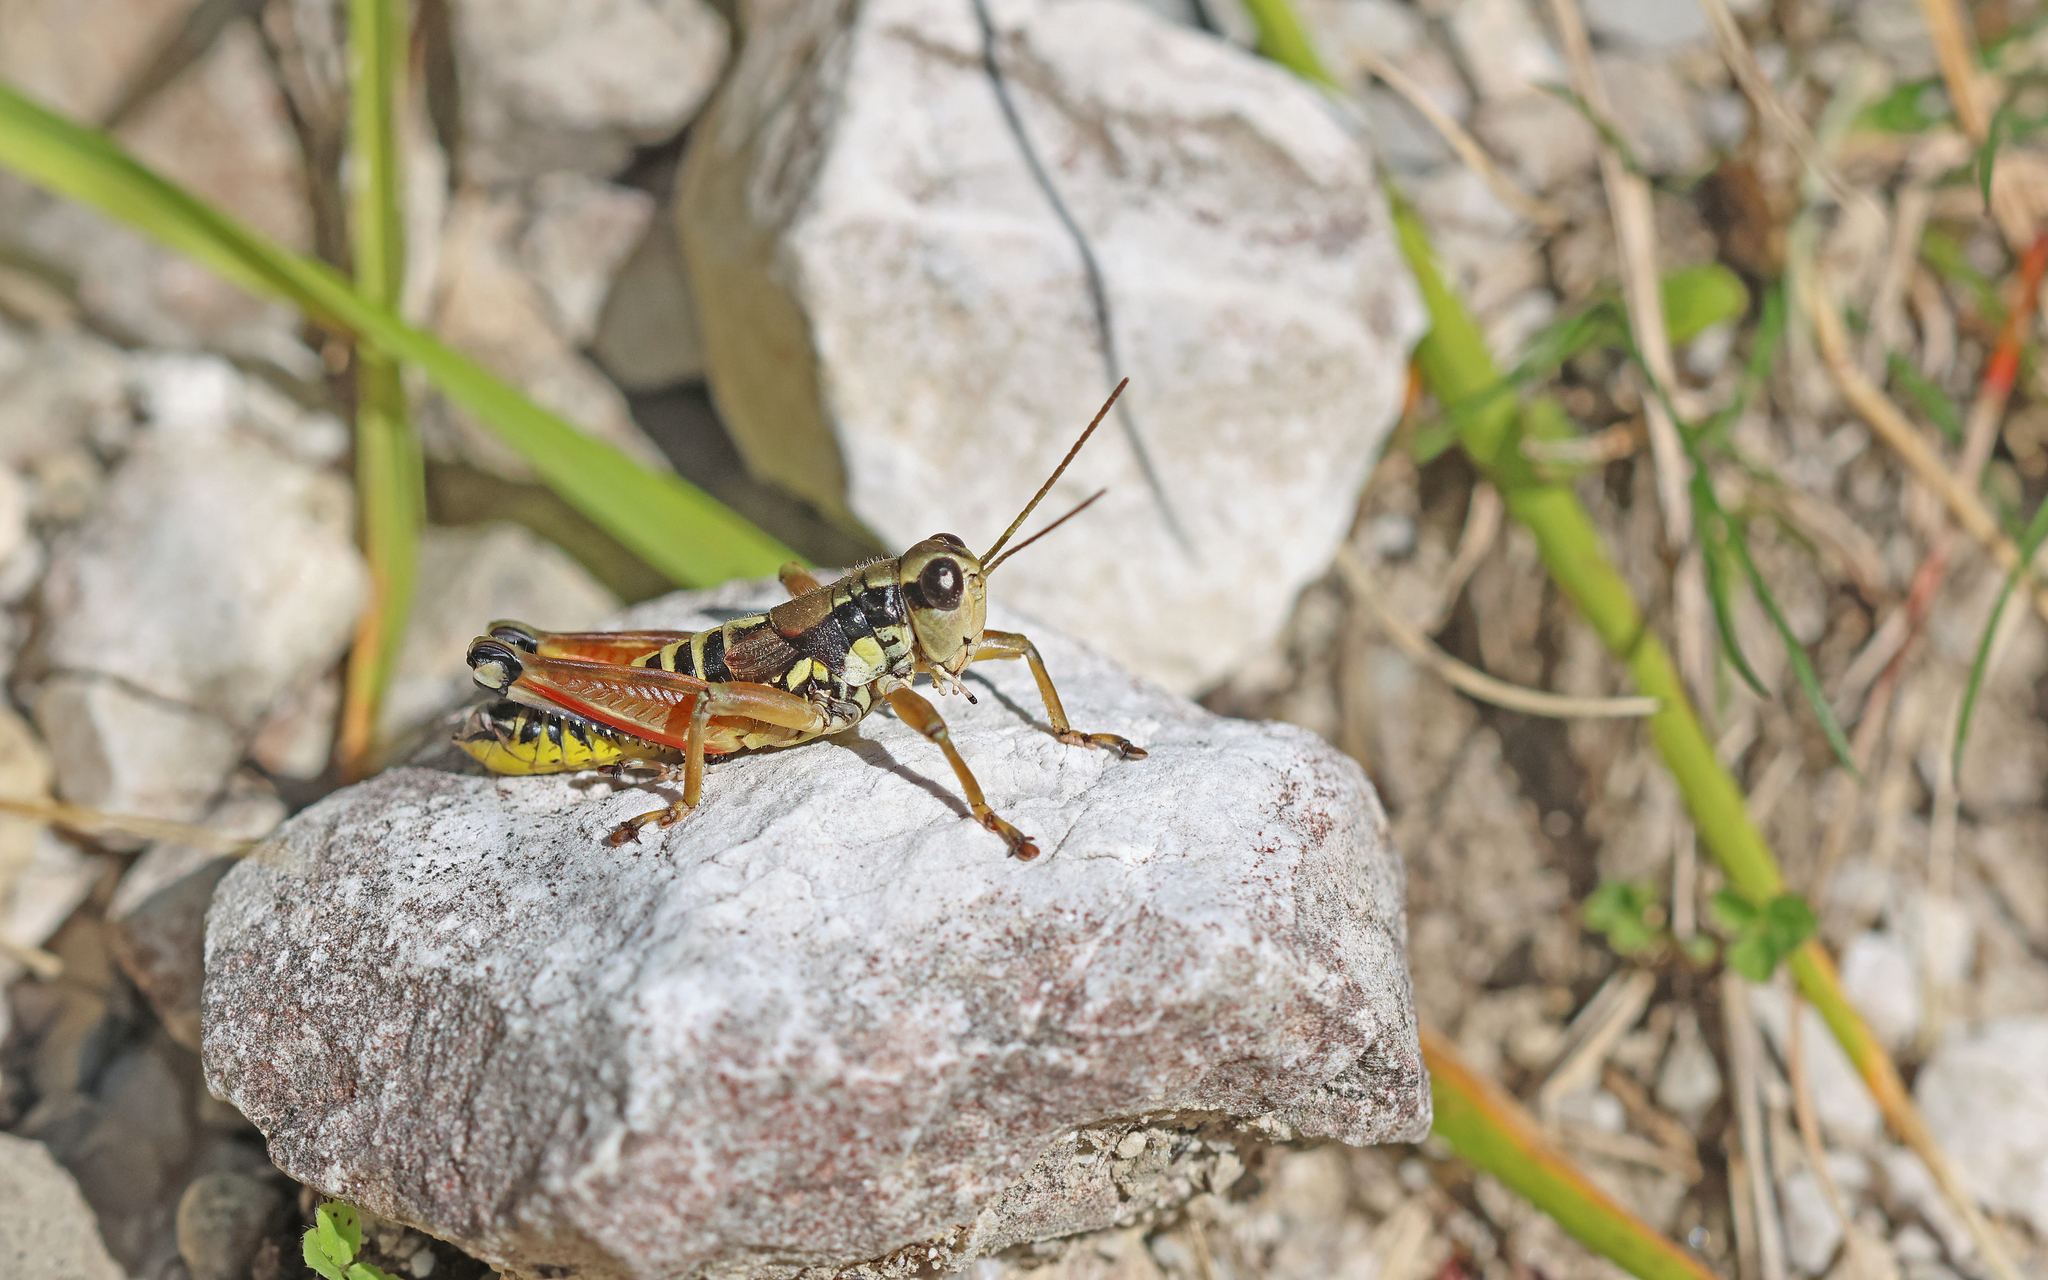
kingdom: Animalia
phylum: Arthropoda
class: Insecta
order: Orthoptera
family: Acrididae
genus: Podisma
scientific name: Podisma pedestris
